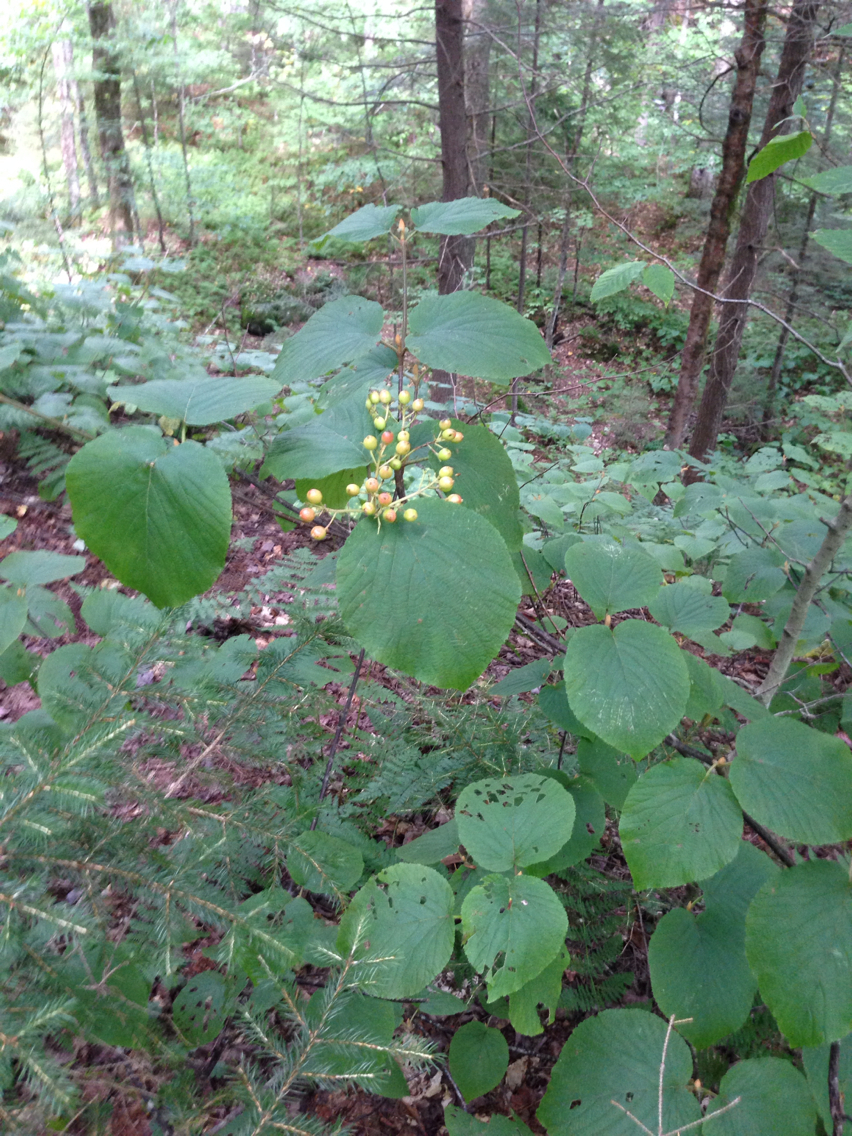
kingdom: Plantae
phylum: Tracheophyta
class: Magnoliopsida
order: Dipsacales
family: Viburnaceae
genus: Viburnum
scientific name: Viburnum lantanoides
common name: Hobblebush
